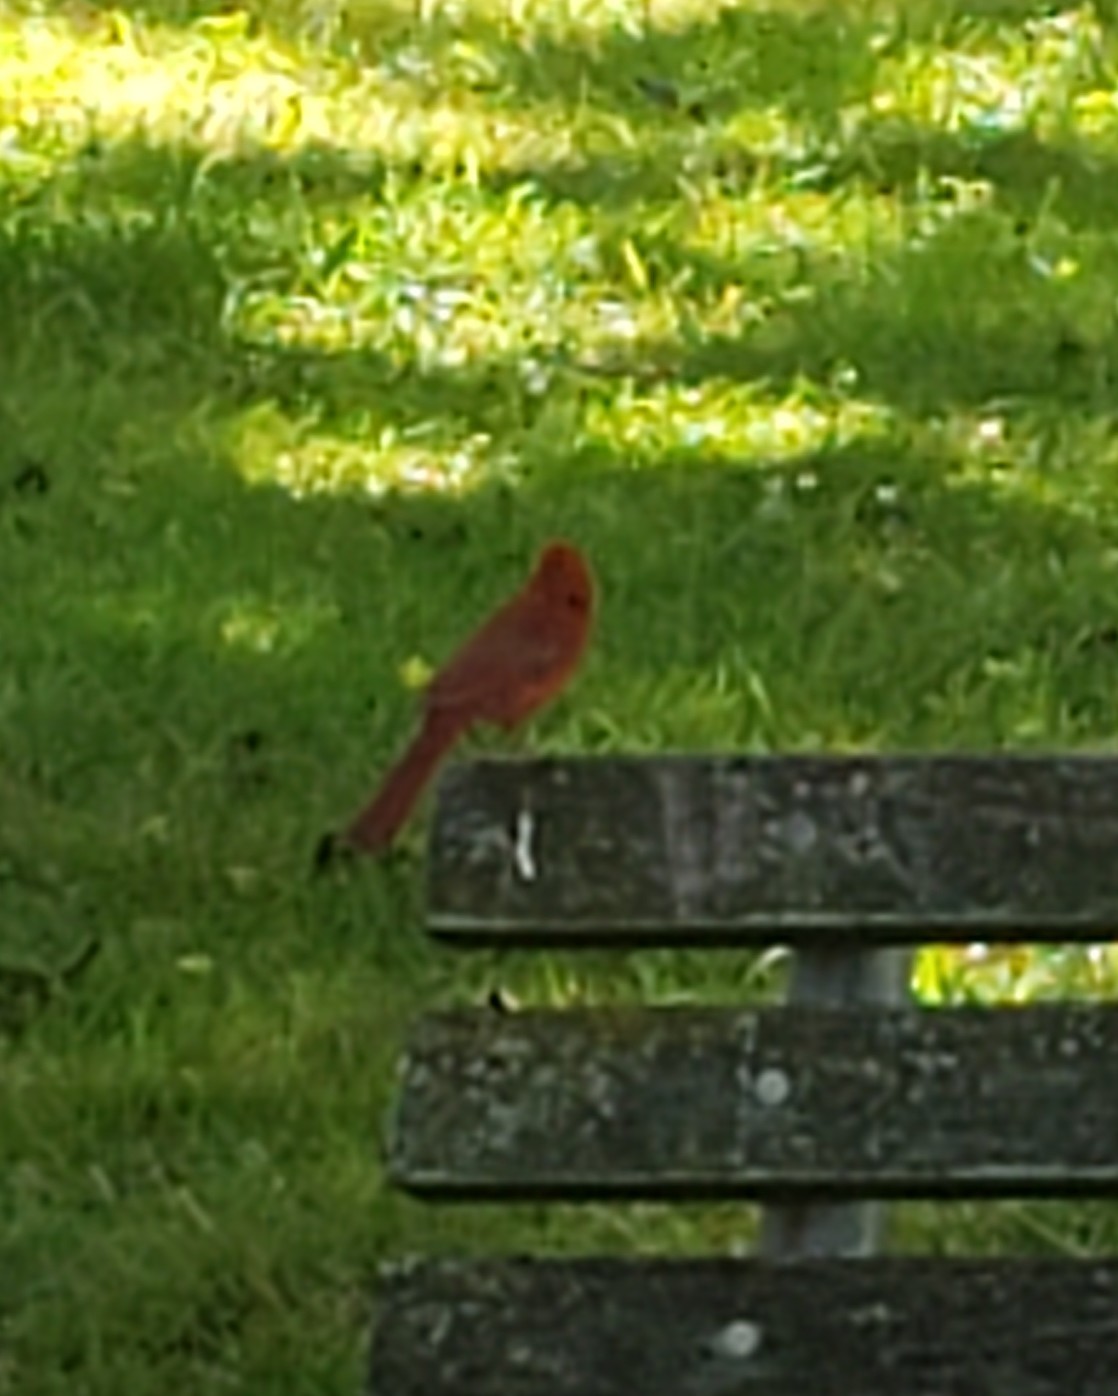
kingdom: Animalia
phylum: Chordata
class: Aves
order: Passeriformes
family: Cardinalidae
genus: Cardinalis
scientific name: Cardinalis cardinalis
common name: Northern cardinal
